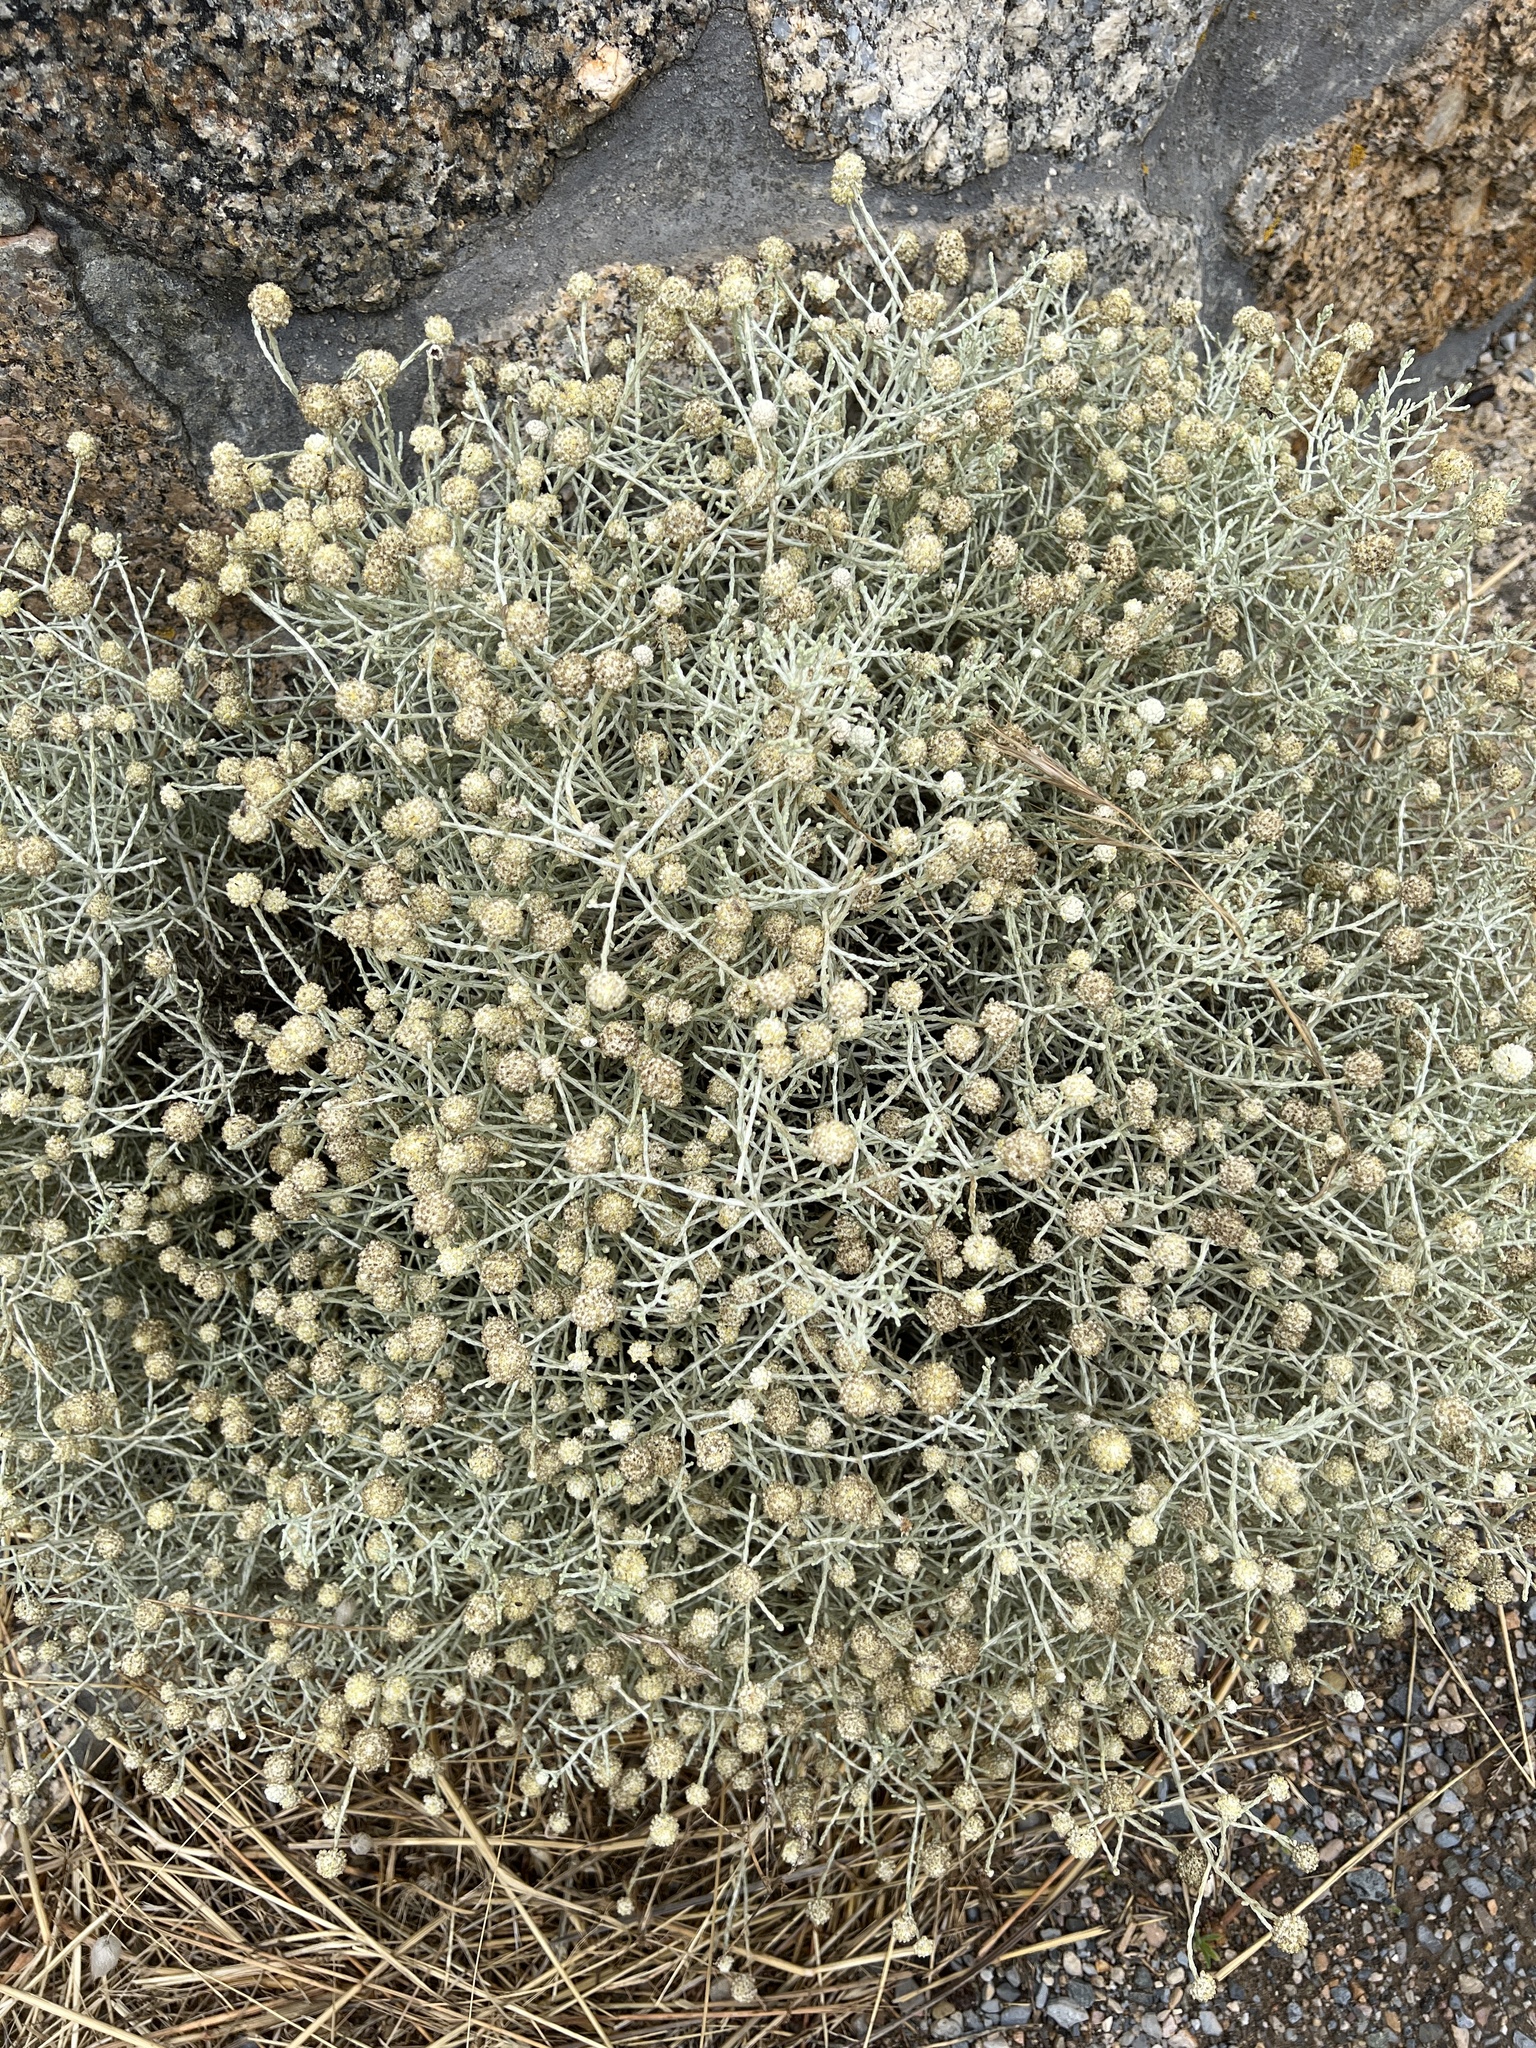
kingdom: Plantae
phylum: Tracheophyta
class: Magnoliopsida
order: Asterales
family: Asteraceae
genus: Calocephalus
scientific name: Calocephalus brownii
